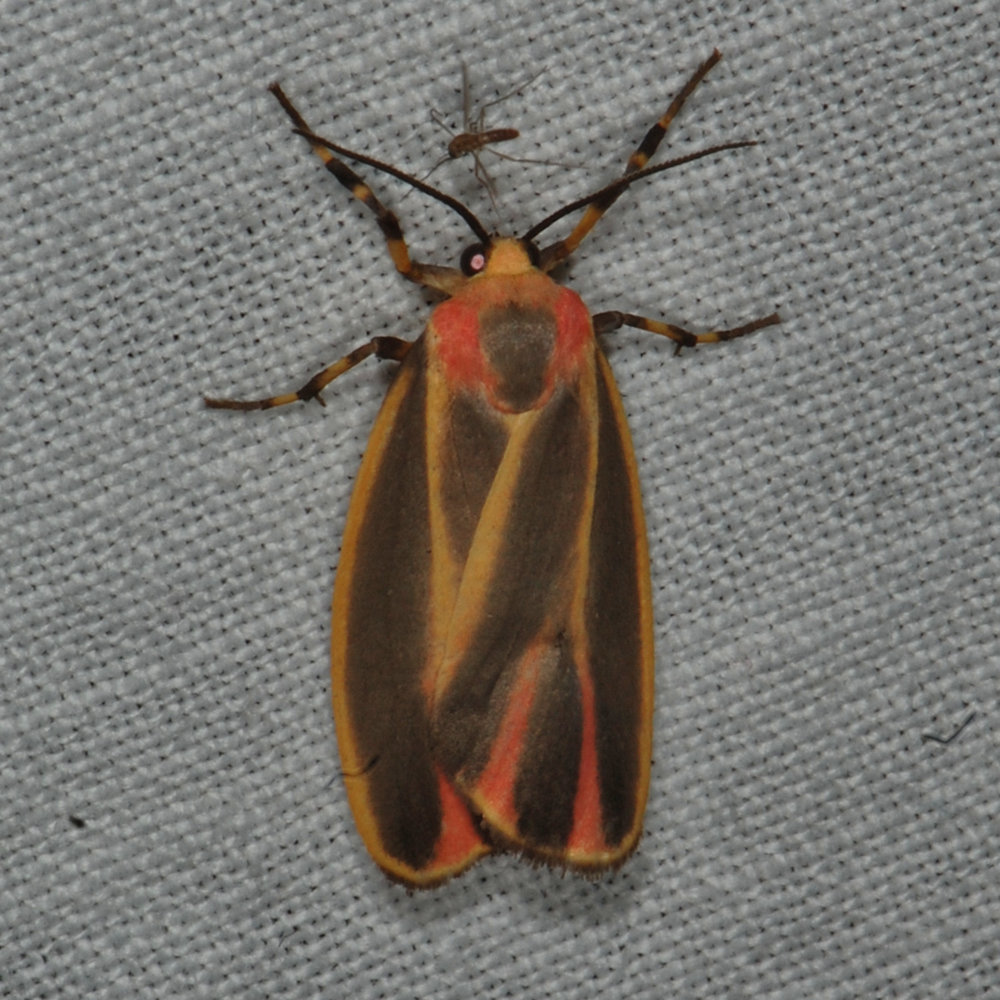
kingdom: Animalia
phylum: Arthropoda
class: Insecta
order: Lepidoptera
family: Erebidae
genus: Hypoprepia
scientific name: Hypoprepia fucosa
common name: Painted lichen moth
